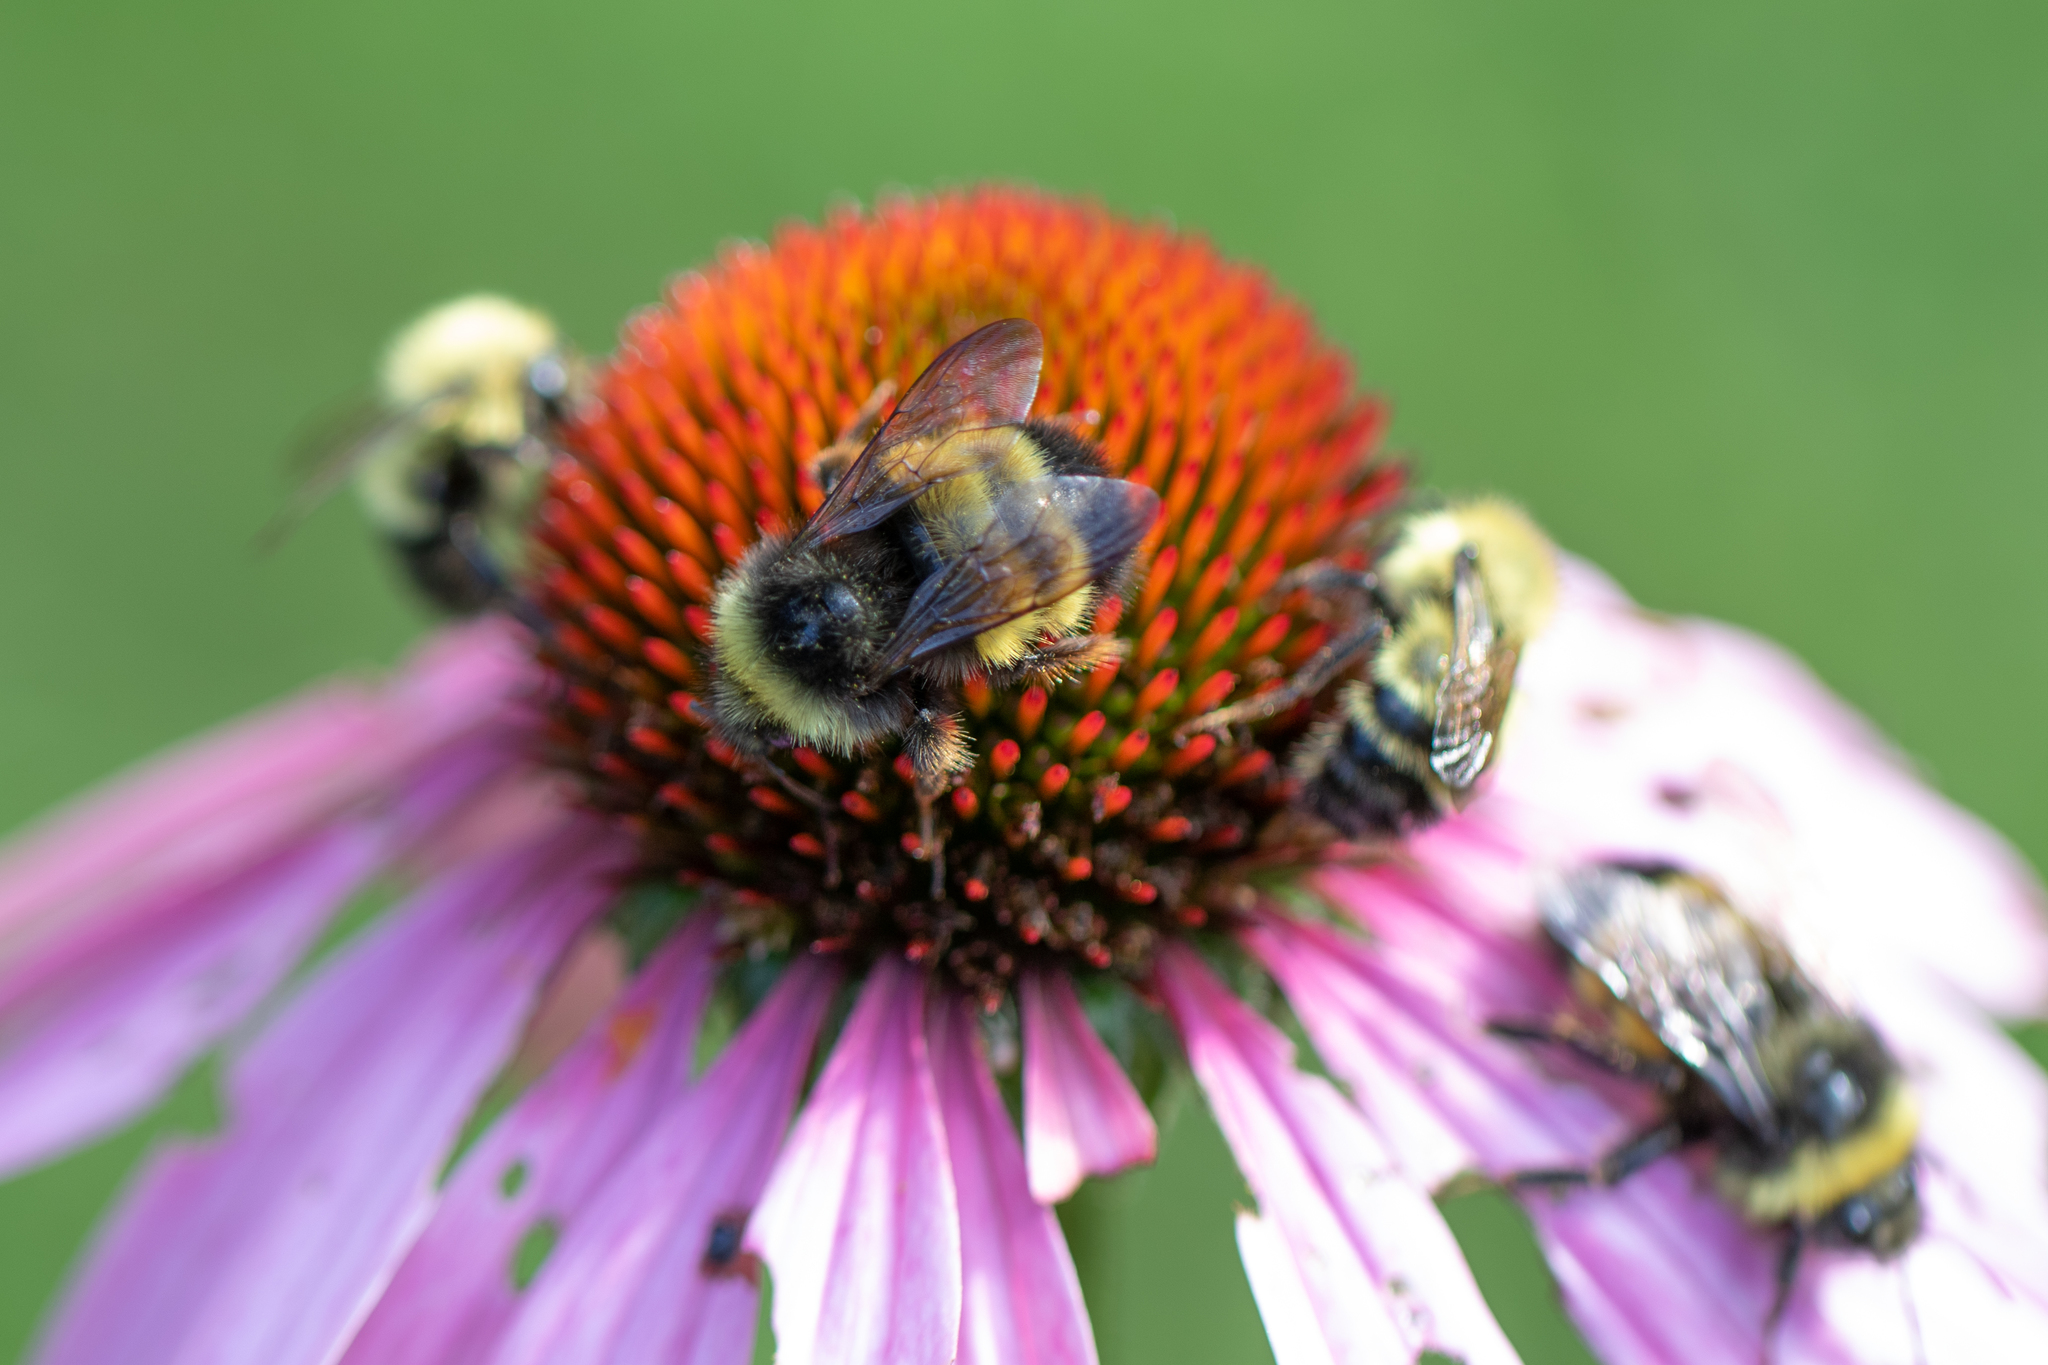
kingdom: Animalia
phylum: Arthropoda
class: Insecta
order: Hymenoptera
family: Apidae
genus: Bombus
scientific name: Bombus terricola
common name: Yellow-banded bumble bee
